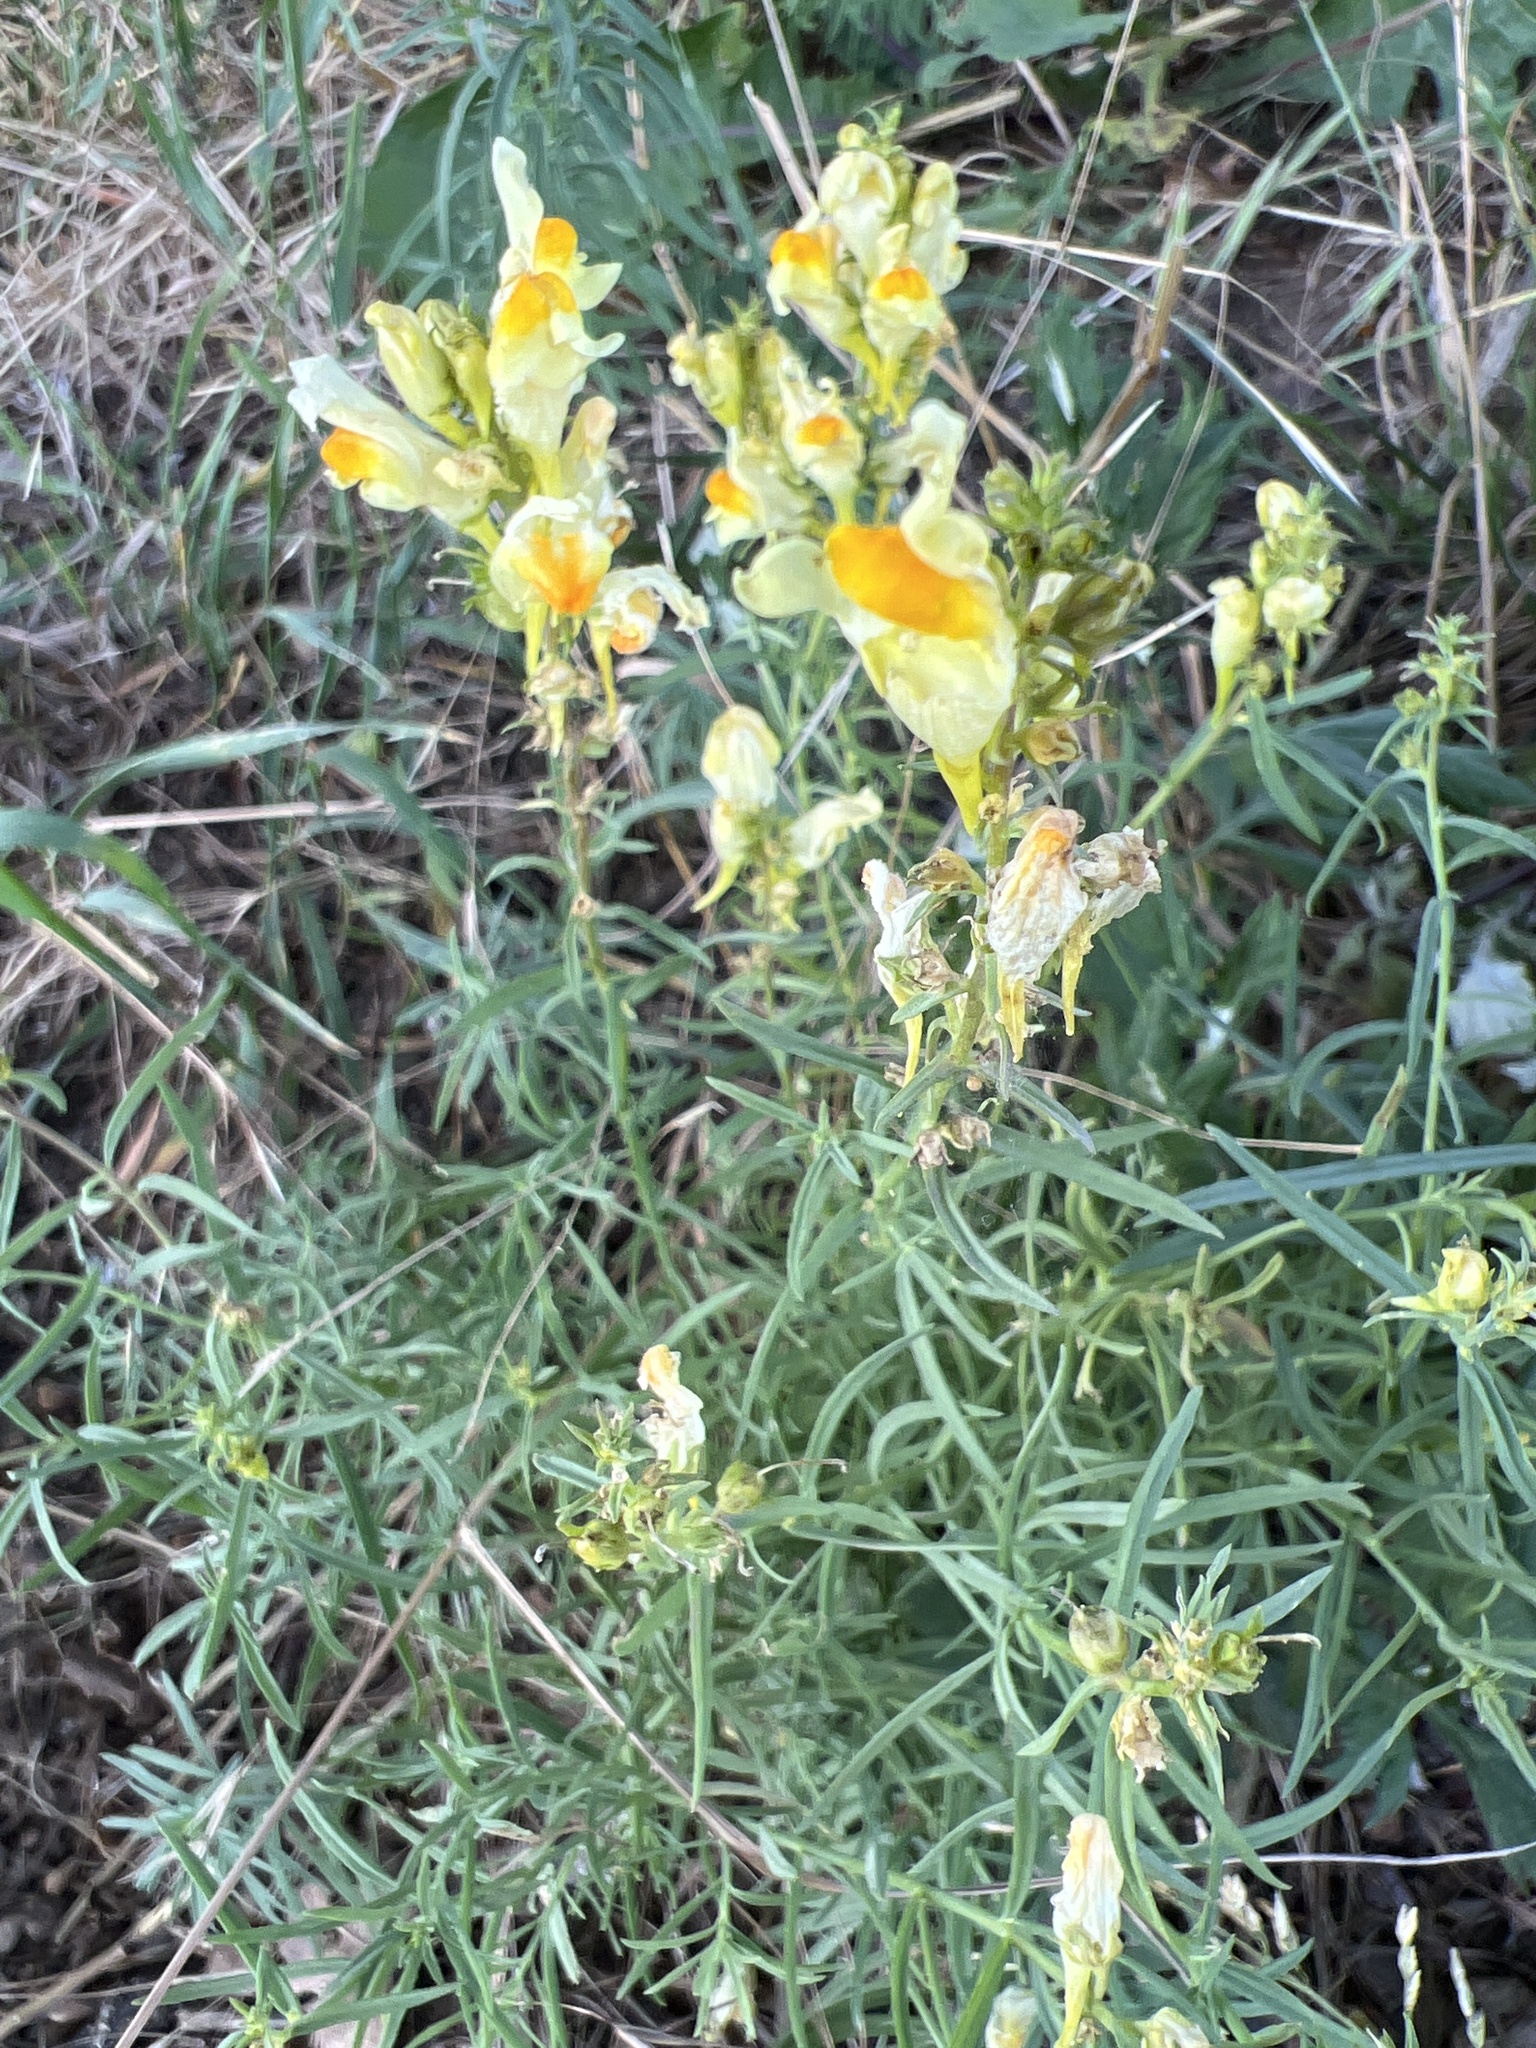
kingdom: Plantae
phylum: Tracheophyta
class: Magnoliopsida
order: Lamiales
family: Plantaginaceae
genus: Linaria
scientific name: Linaria vulgaris
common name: Butter and eggs
